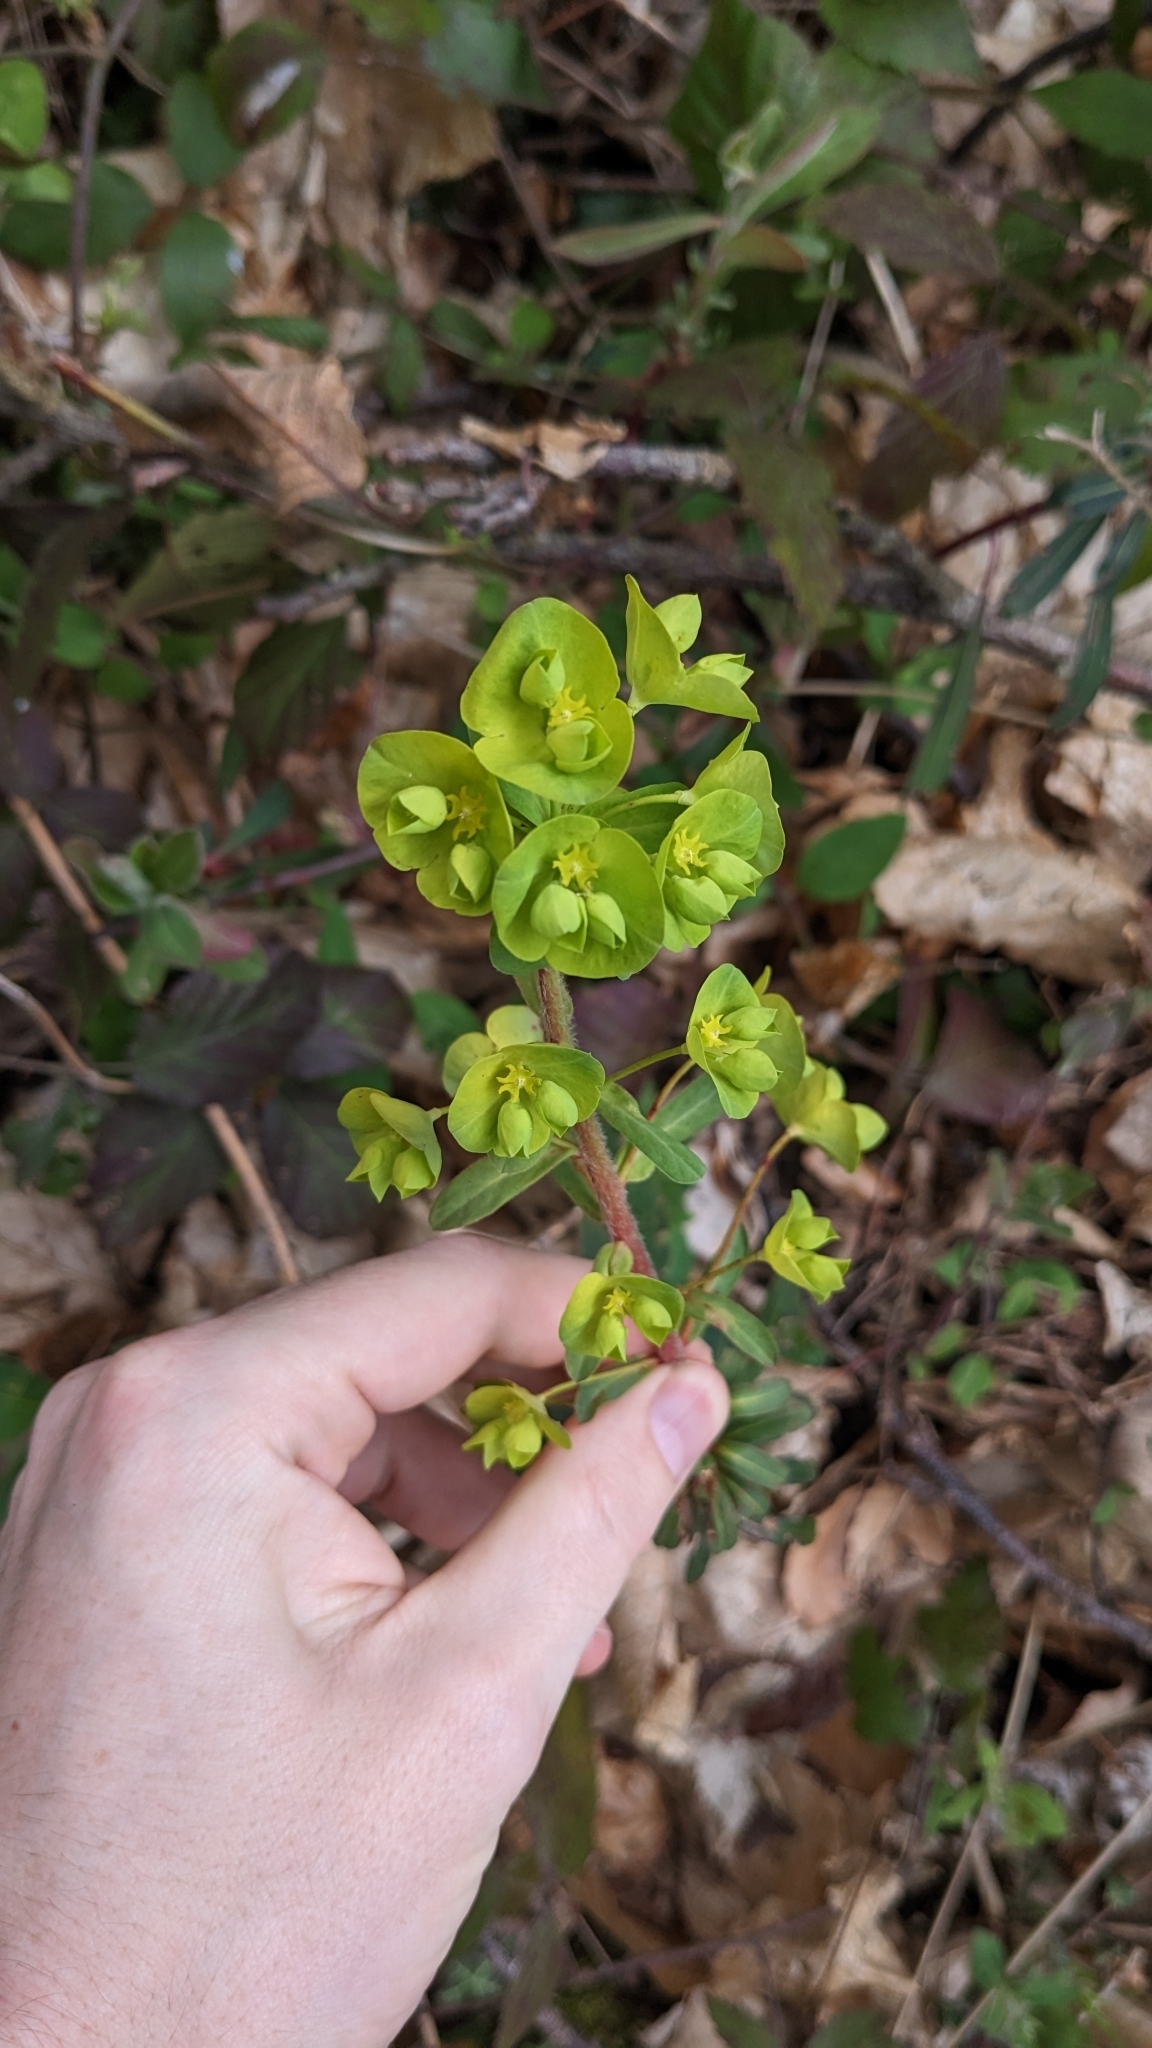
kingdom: Plantae
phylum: Tracheophyta
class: Magnoliopsida
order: Malpighiales
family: Euphorbiaceae
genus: Euphorbia
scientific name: Euphorbia amygdaloides
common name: Wood spurge
